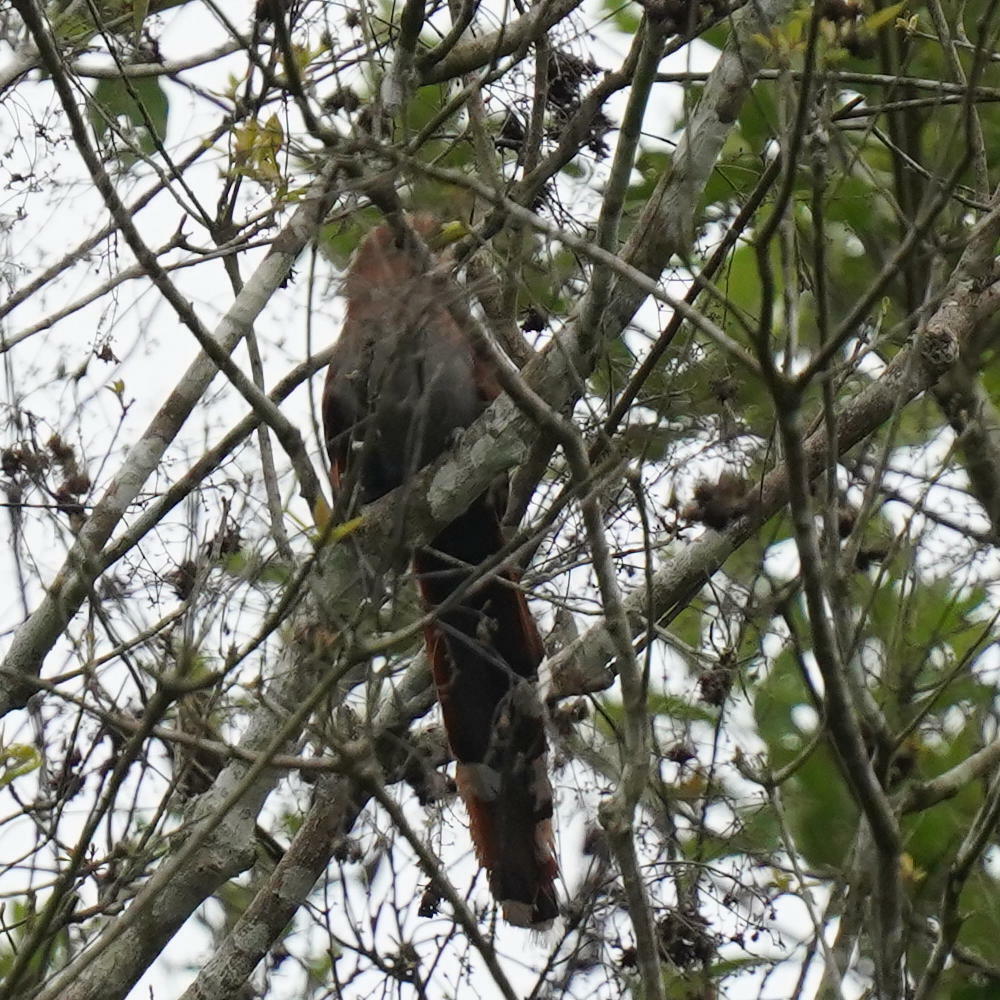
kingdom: Animalia
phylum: Chordata
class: Aves
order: Cuculiformes
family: Cuculidae
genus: Piaya
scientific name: Piaya cayana
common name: Squirrel cuckoo
